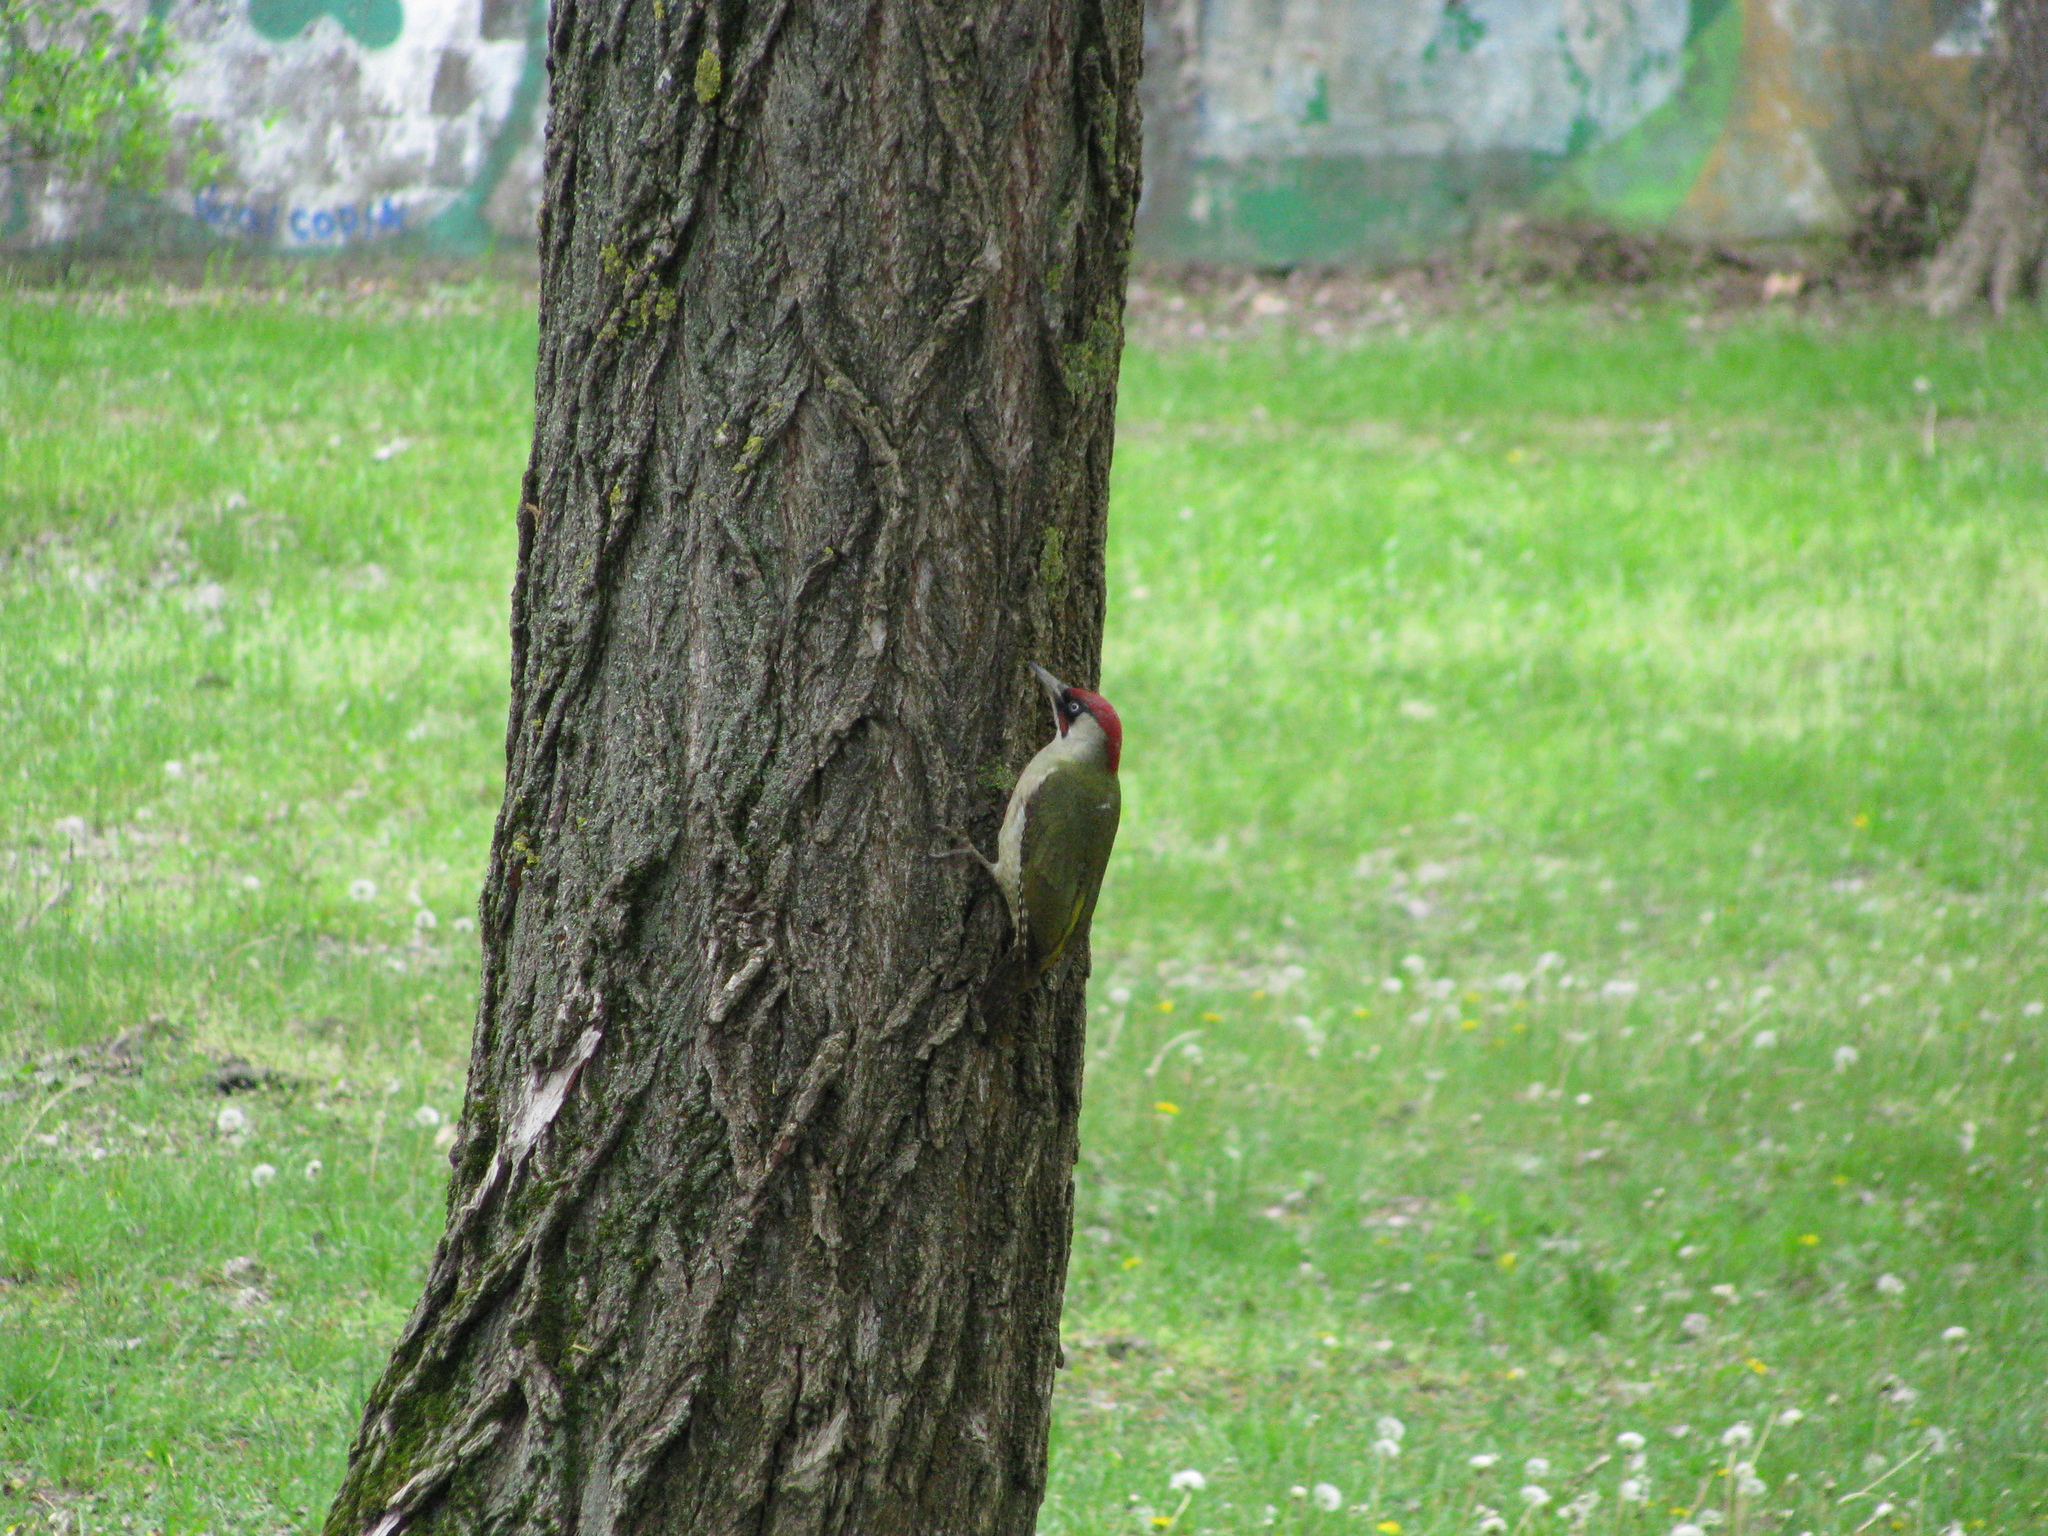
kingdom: Animalia
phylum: Chordata
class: Aves
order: Piciformes
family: Picidae
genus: Picus
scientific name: Picus viridis
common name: European green woodpecker
